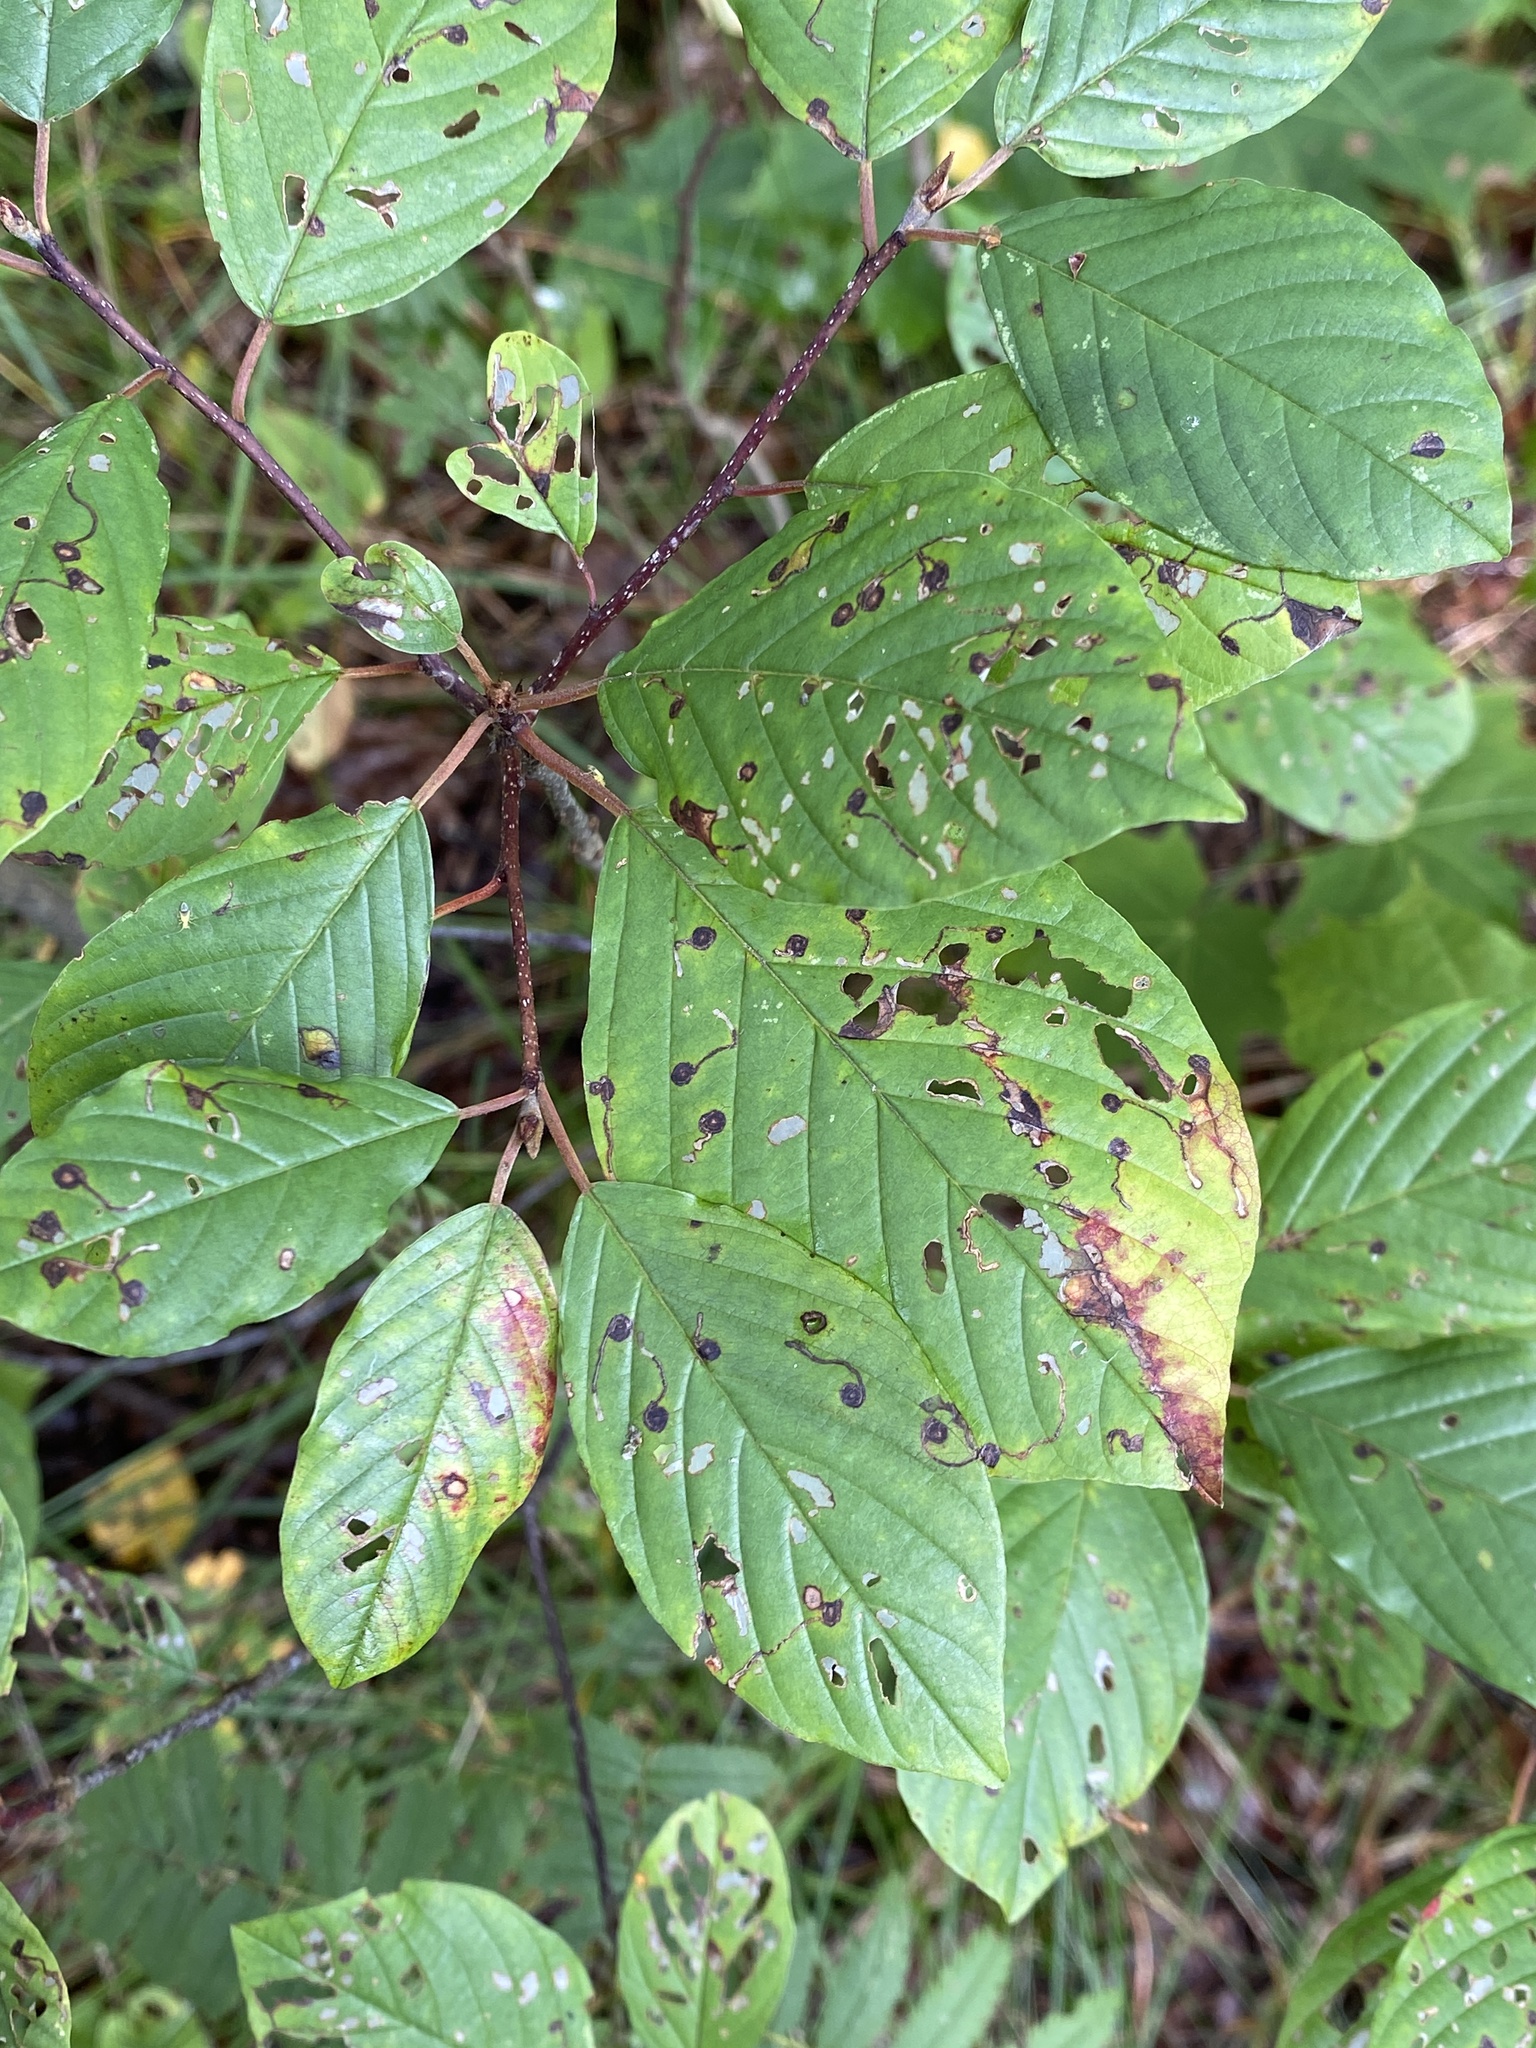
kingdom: Animalia
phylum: Arthropoda
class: Insecta
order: Lepidoptera
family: Bucculatricidae
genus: Bucculatrix
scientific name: Bucculatrix frangutella
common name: Buckthorn bent-wing
